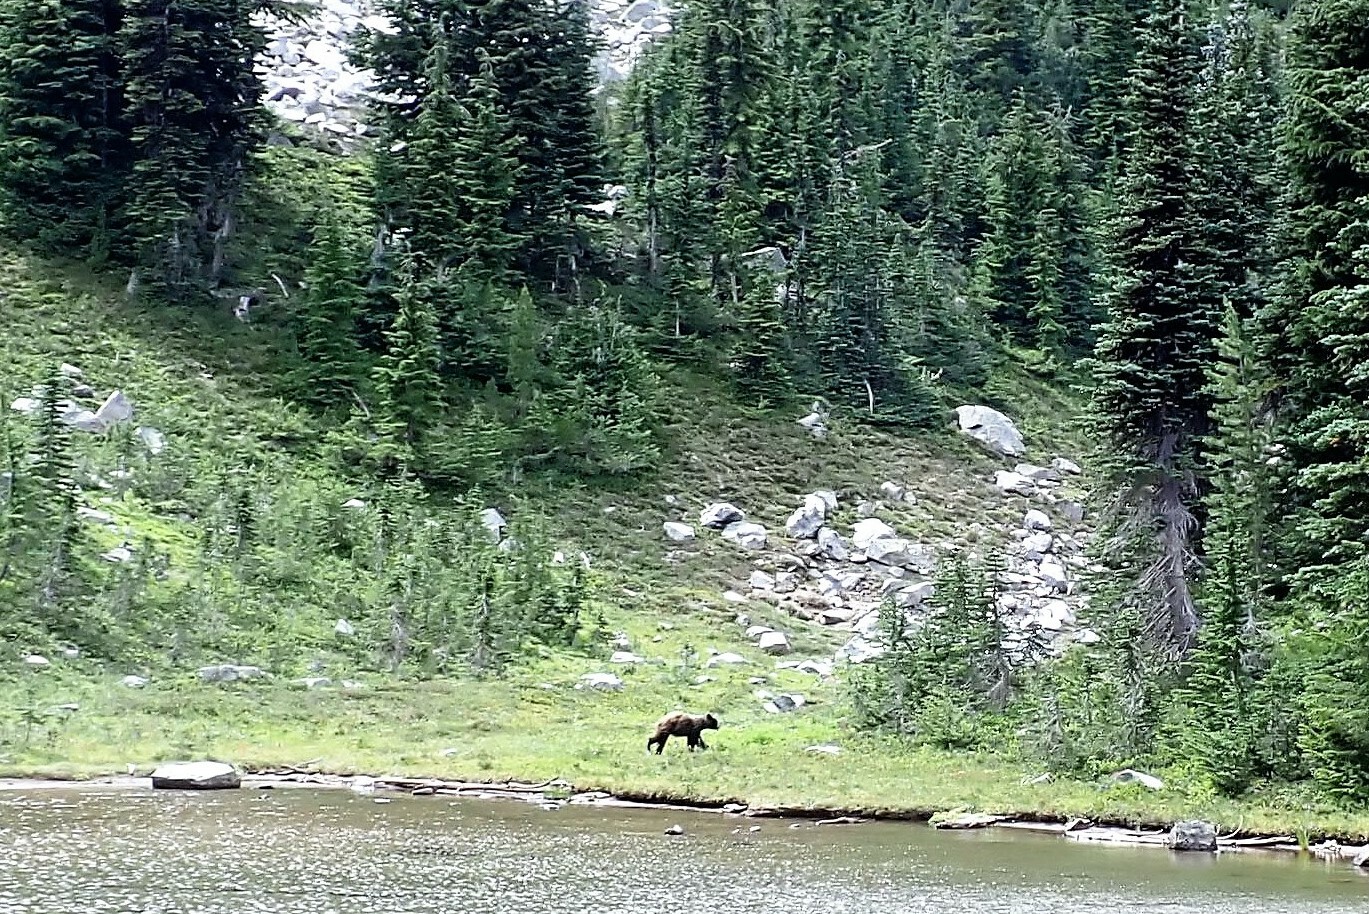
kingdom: Animalia
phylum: Chordata
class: Mammalia
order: Carnivora
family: Ursidae
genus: Ursus
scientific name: Ursus americanus
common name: American black bear
